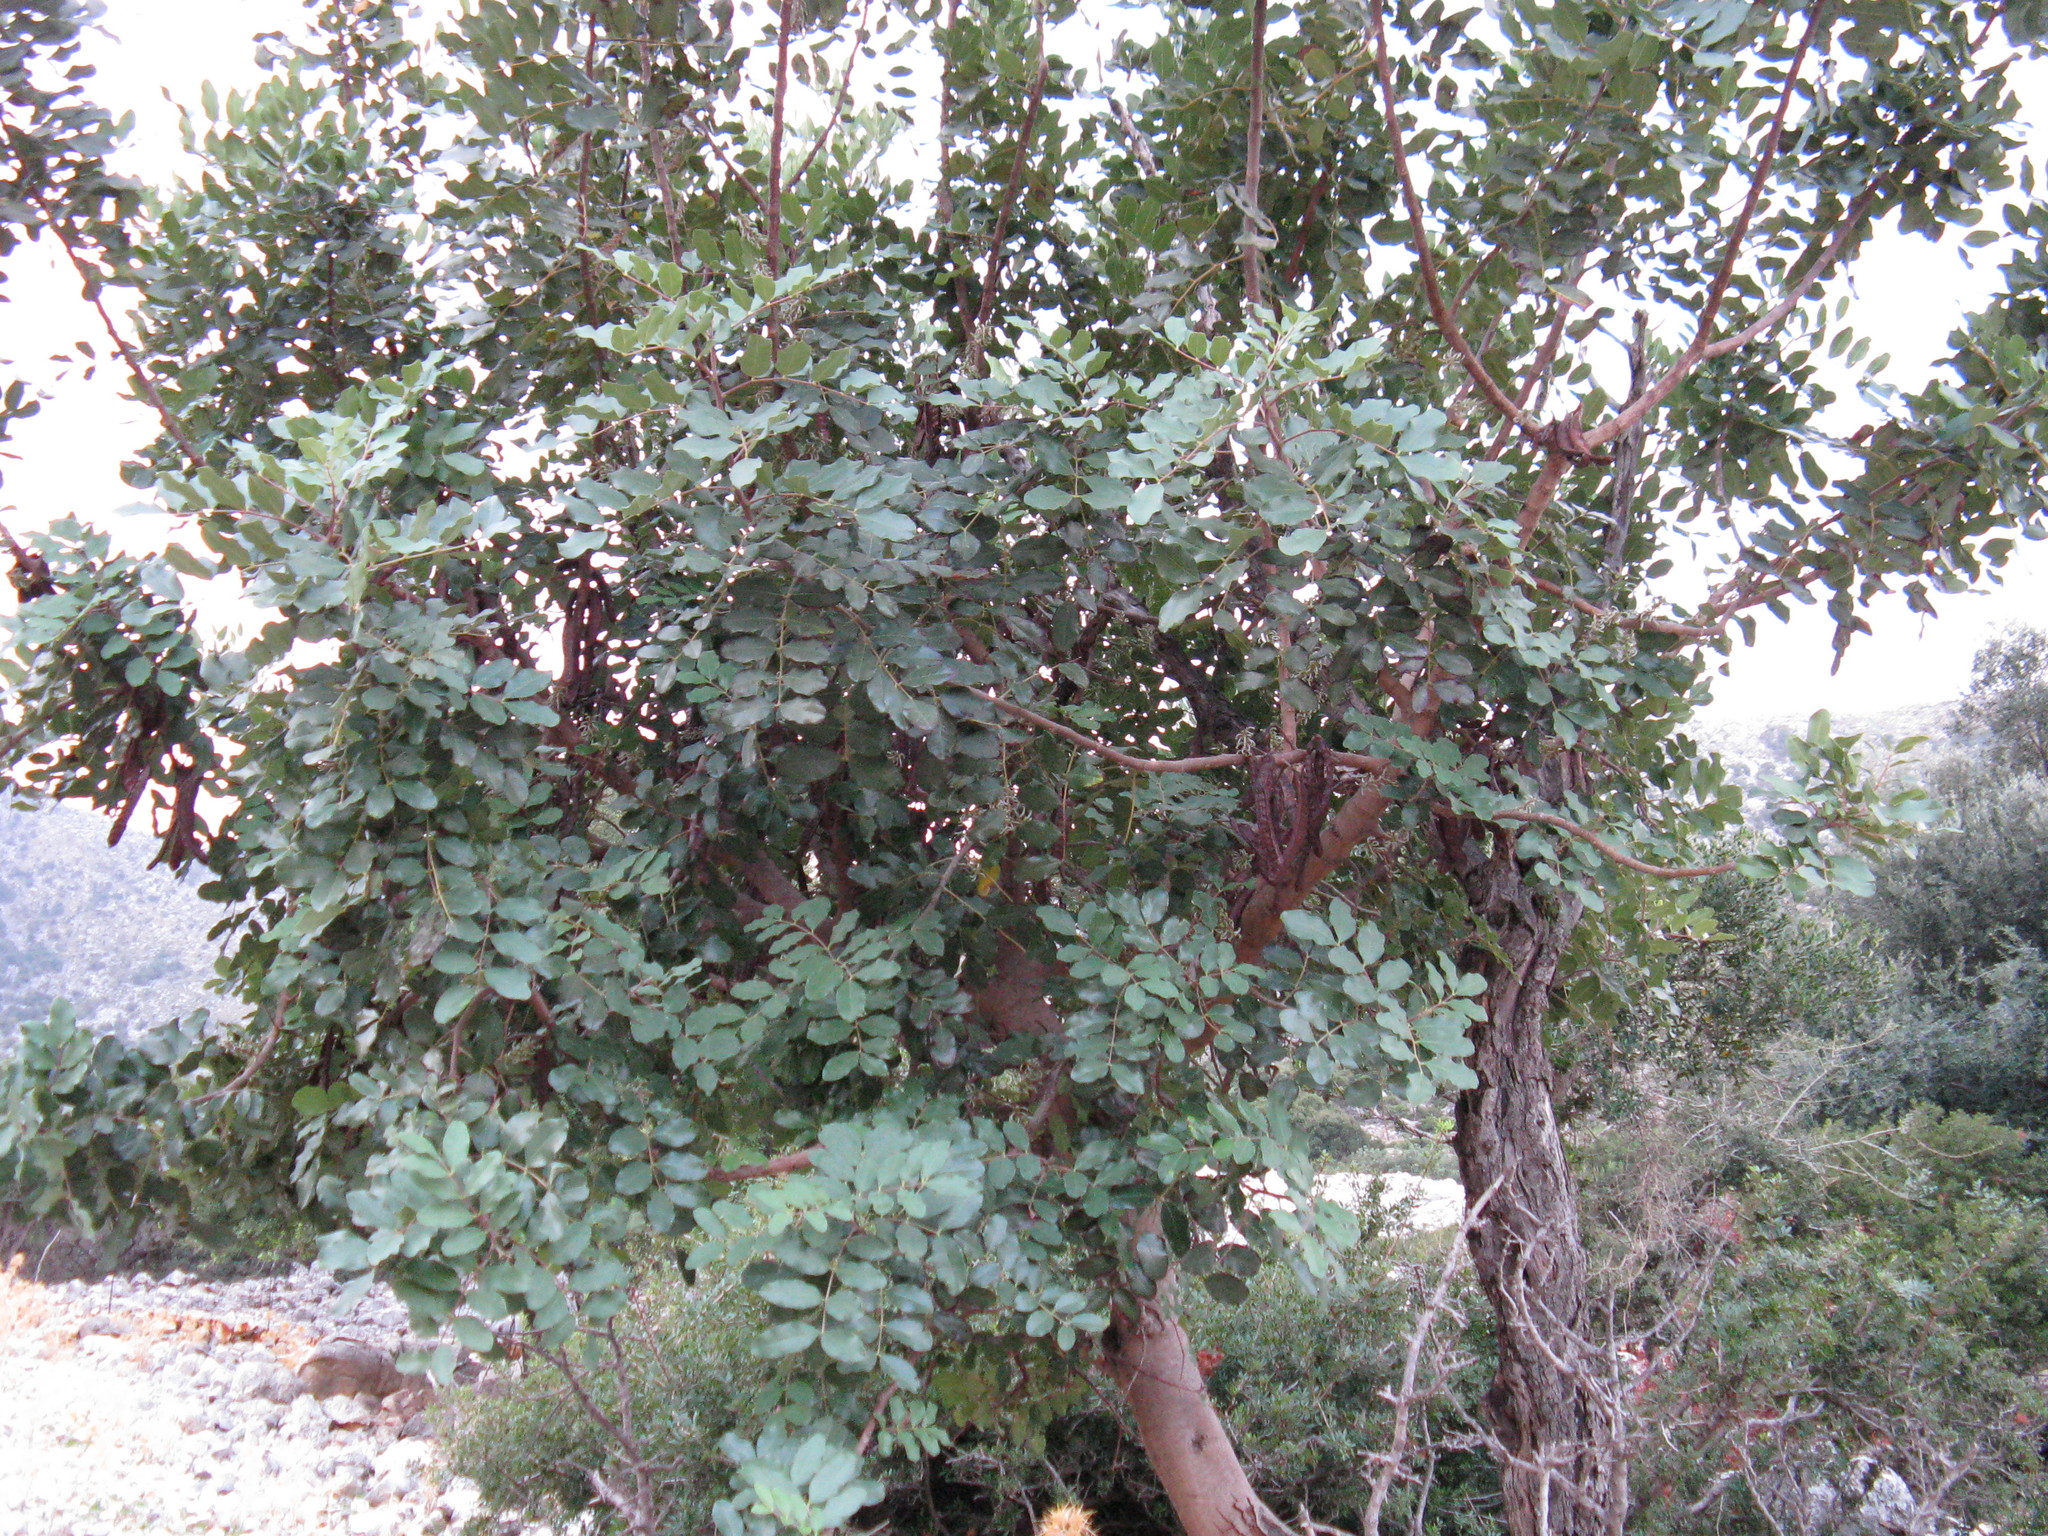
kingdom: Plantae
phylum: Tracheophyta
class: Magnoliopsida
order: Fabales
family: Fabaceae
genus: Ceratonia
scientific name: Ceratonia siliqua
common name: Carob
